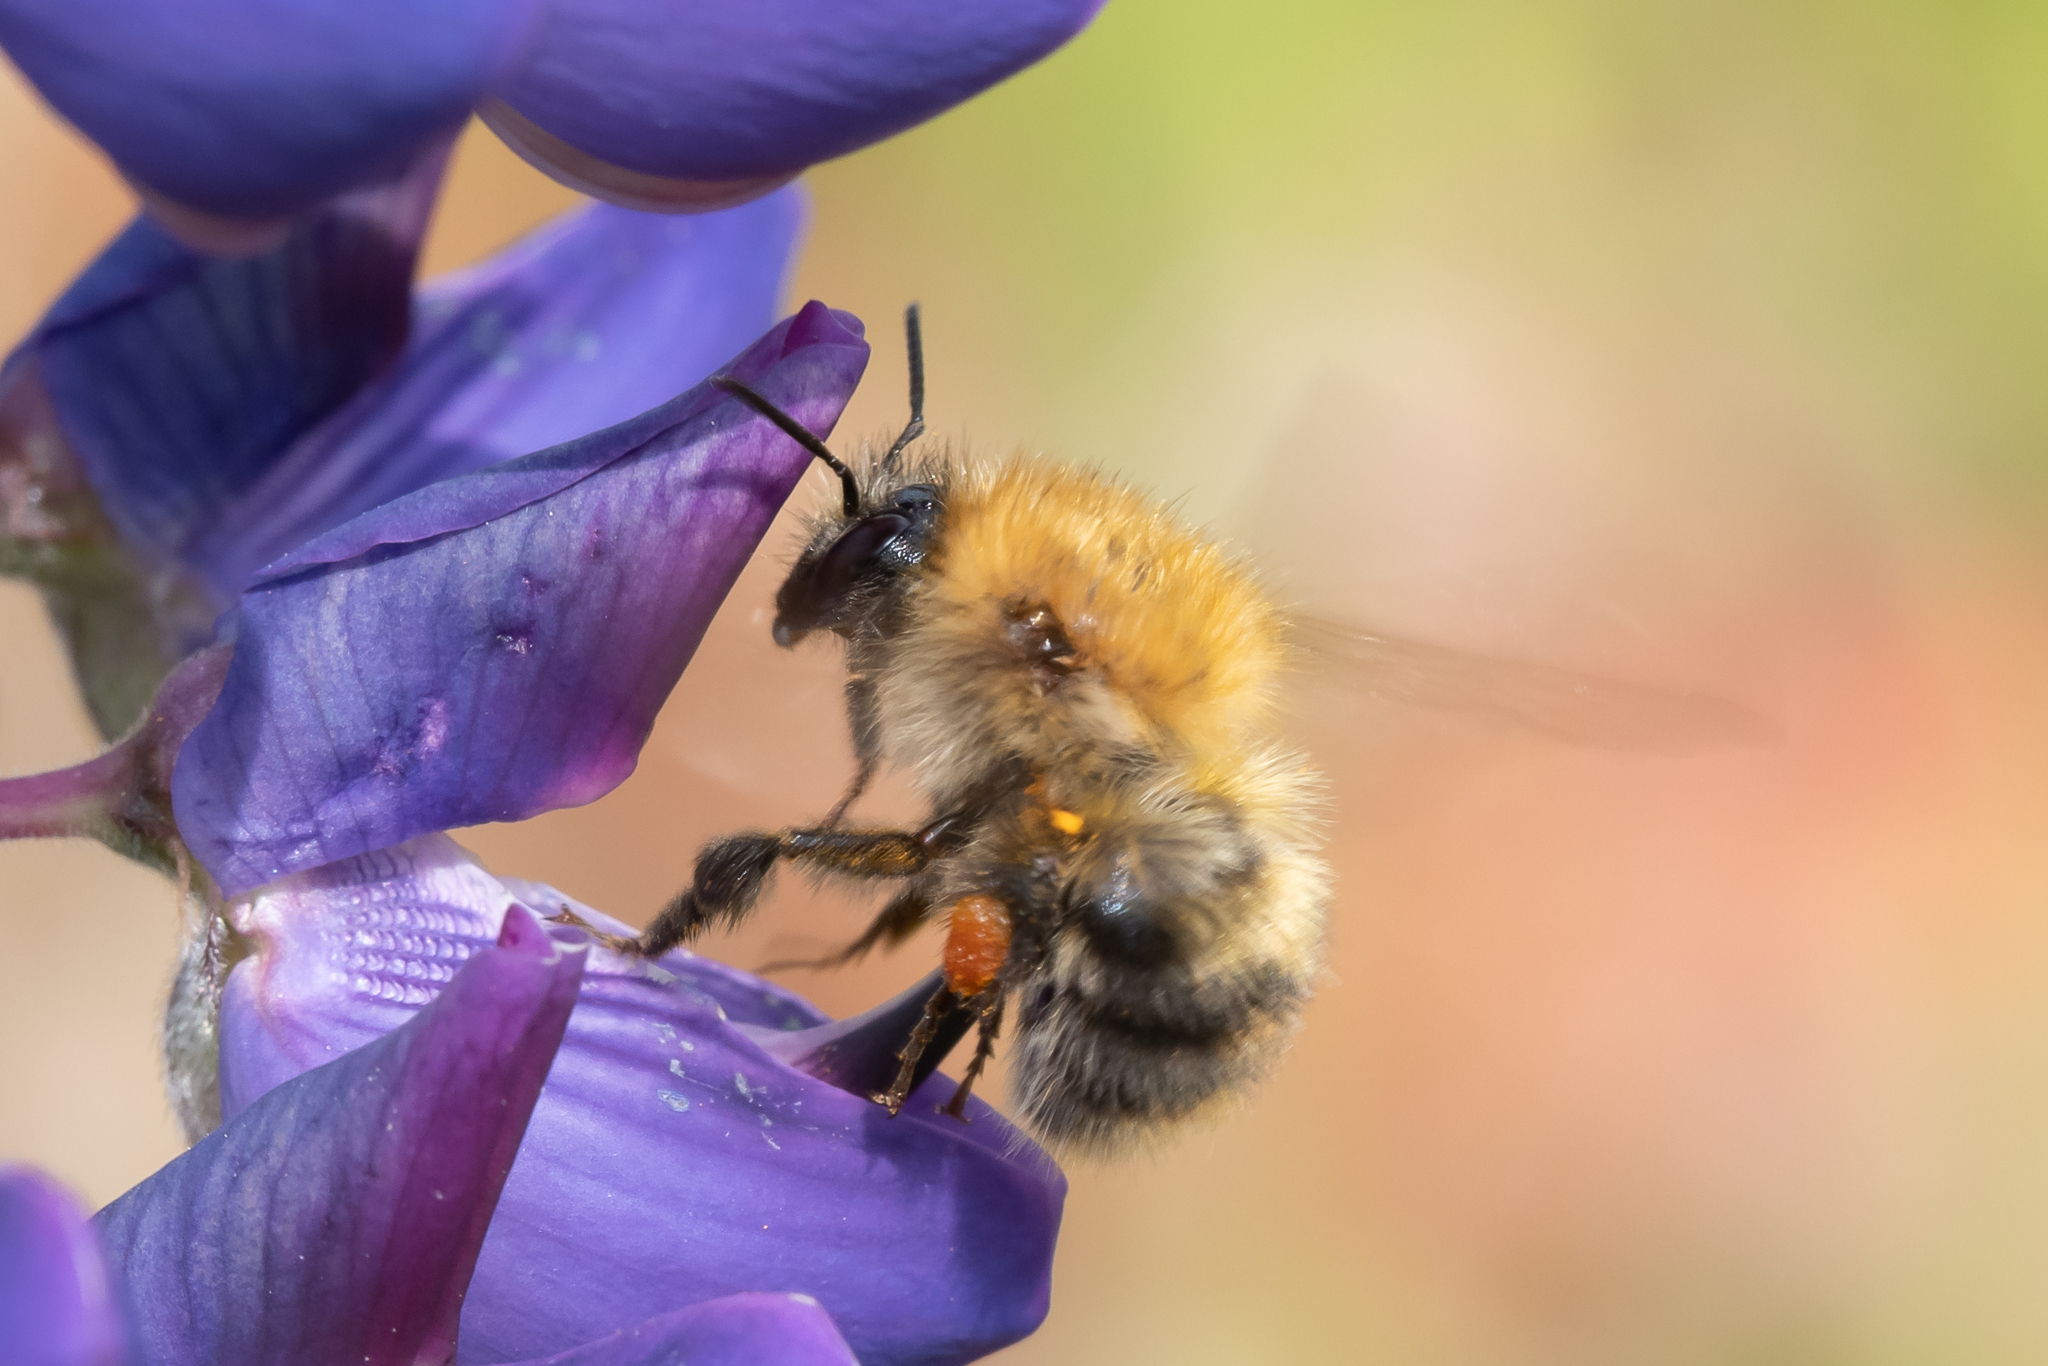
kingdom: Animalia
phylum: Arthropoda
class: Insecta
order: Hymenoptera
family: Apidae
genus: Bombus
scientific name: Bombus pascuorum
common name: Common carder bee
